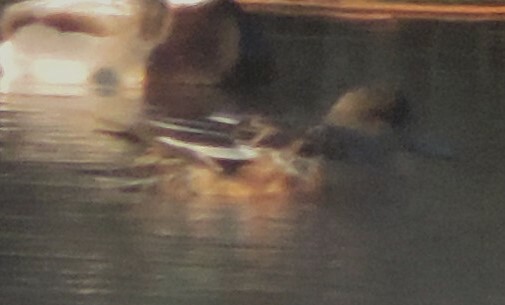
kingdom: Animalia
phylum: Chordata
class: Aves
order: Anseriformes
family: Anatidae
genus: Mareca
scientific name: Mareca americana
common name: American wigeon
